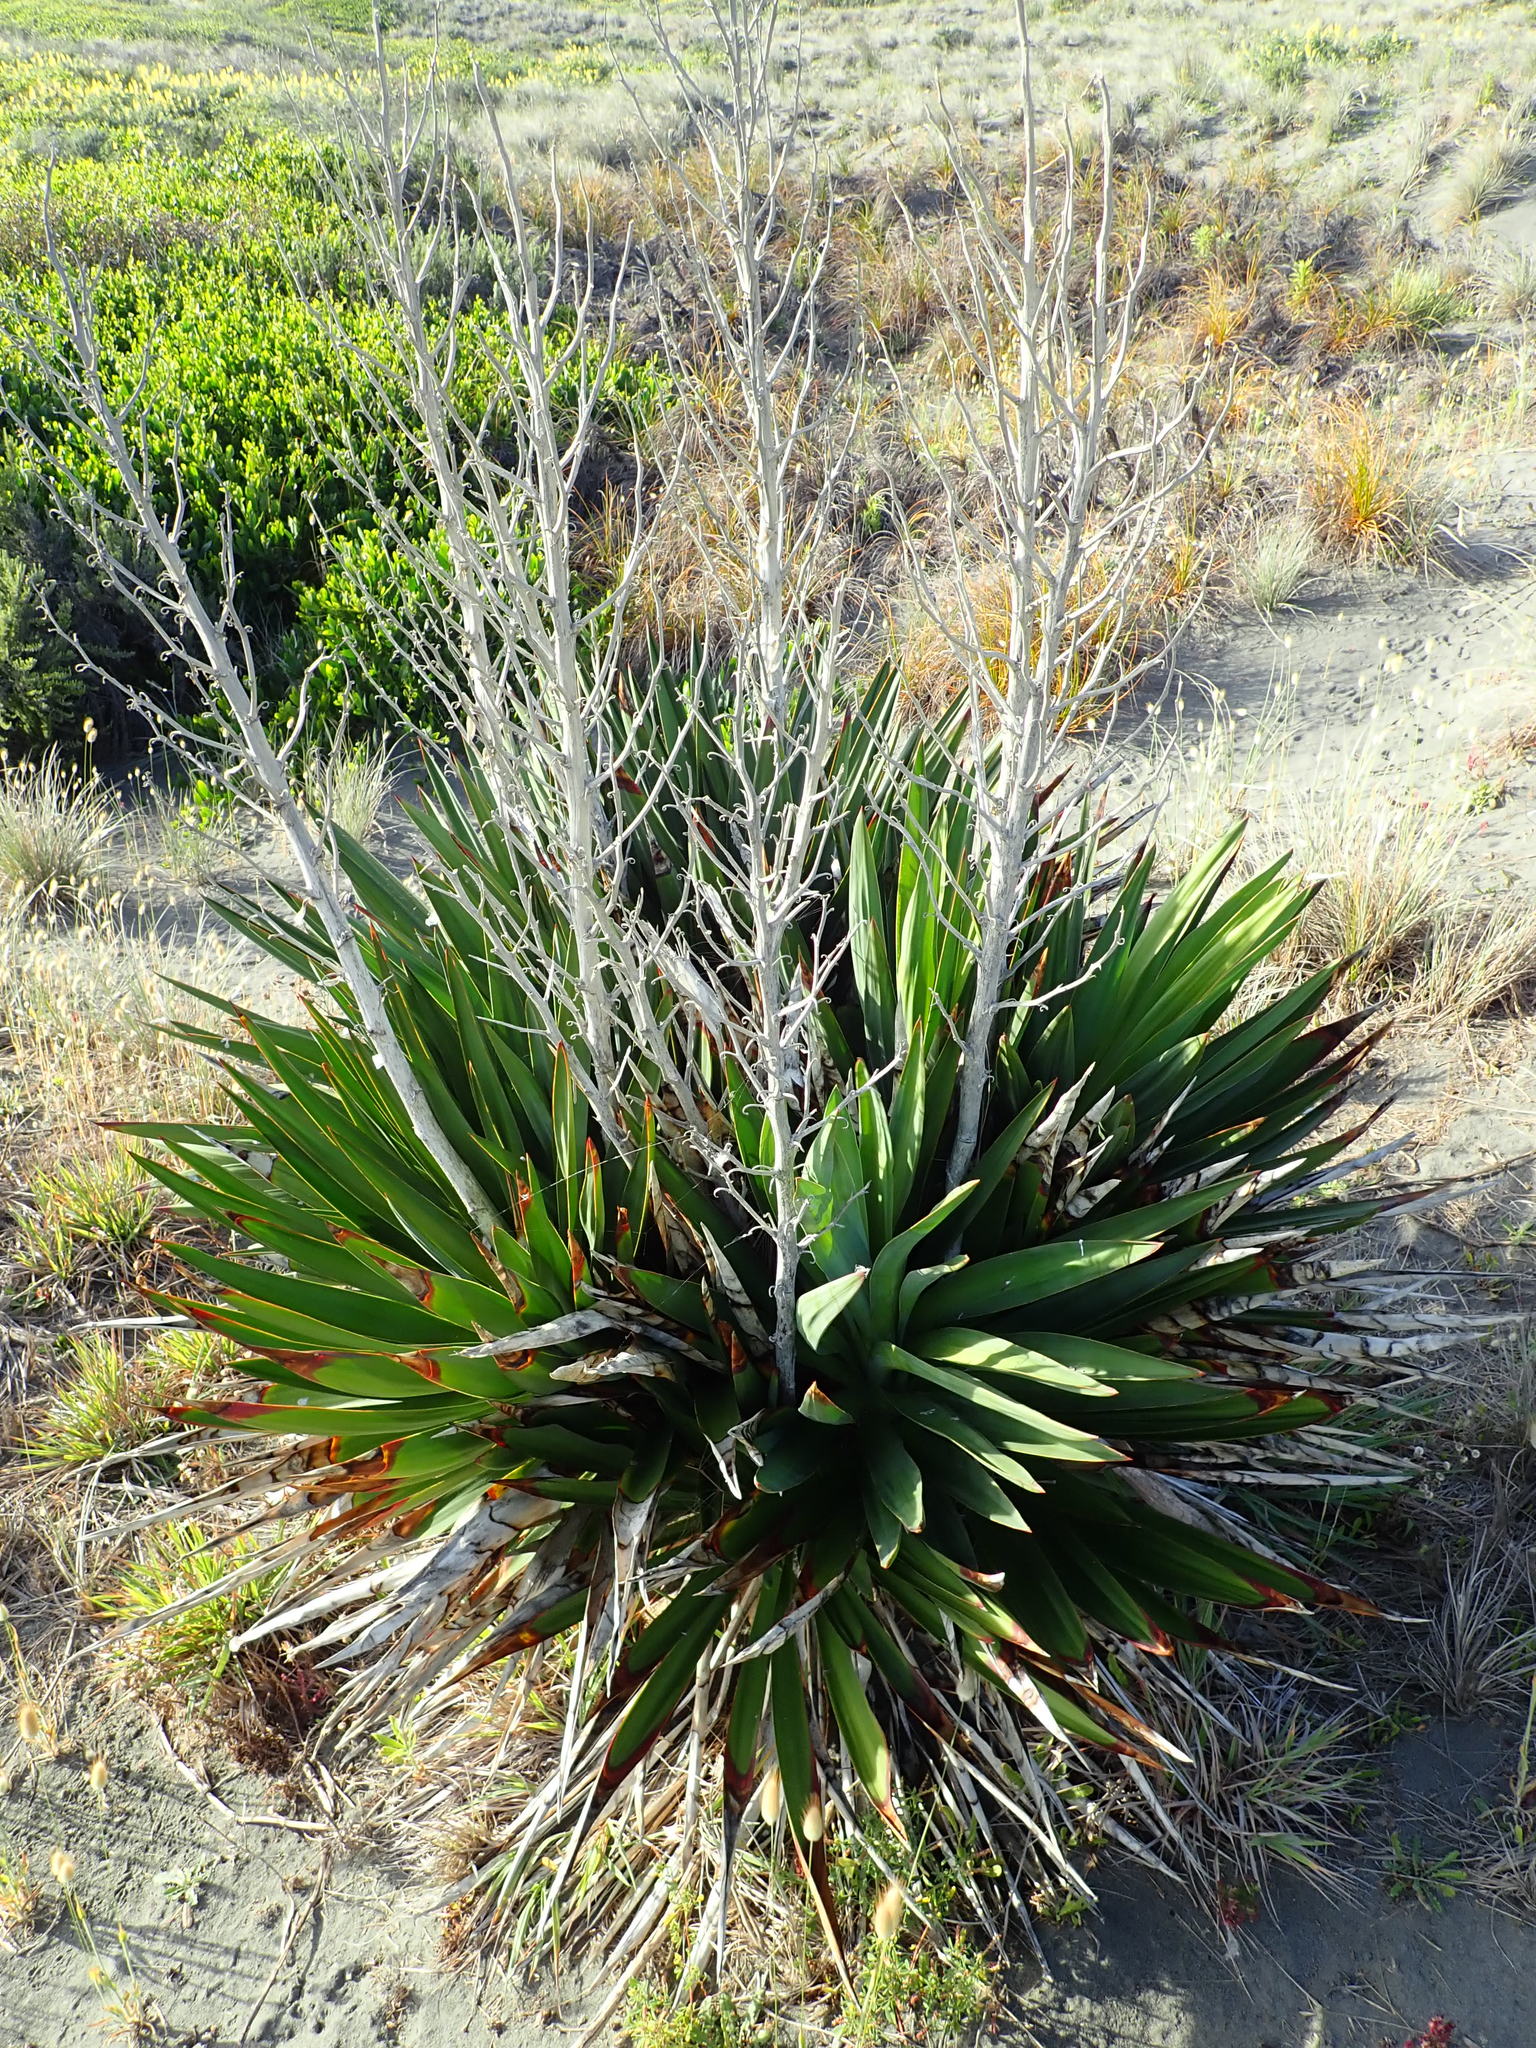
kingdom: Plantae
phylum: Tracheophyta
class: Liliopsida
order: Asparagales
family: Asparagaceae
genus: Yucca
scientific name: Yucca gloriosa
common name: Spanish-dagger
